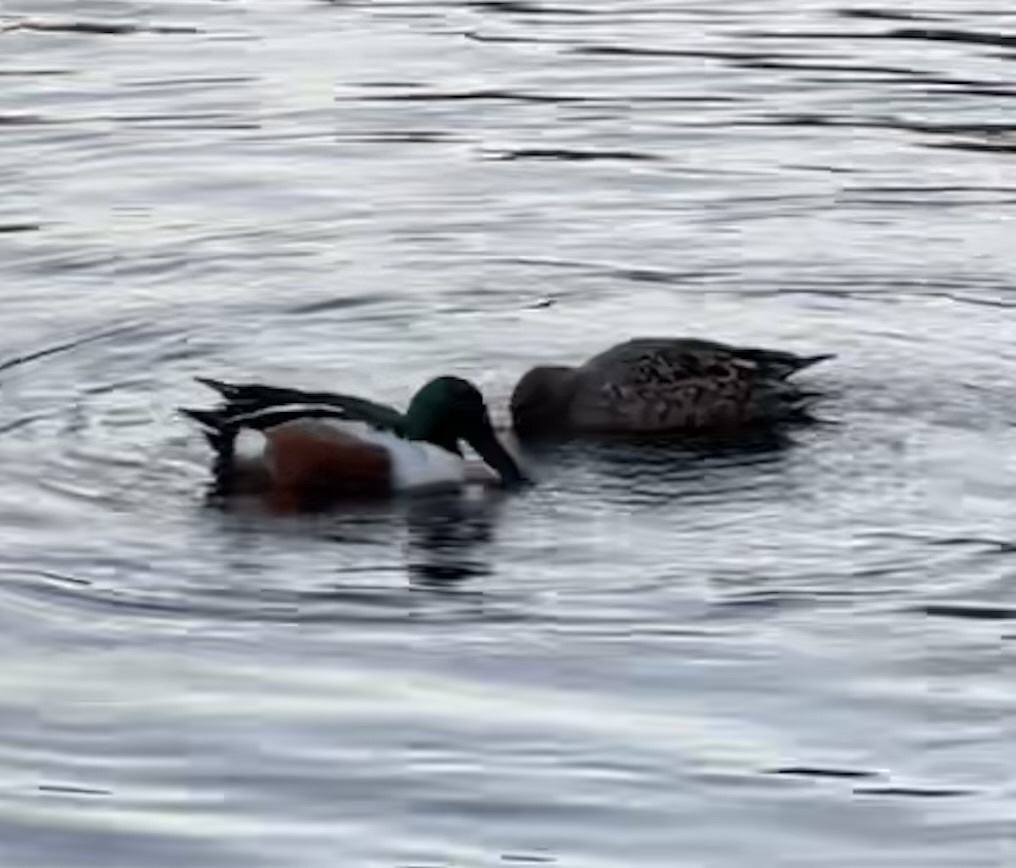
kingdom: Animalia
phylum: Chordata
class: Aves
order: Anseriformes
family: Anatidae
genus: Spatula
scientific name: Spatula clypeata
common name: Northern shoveler
